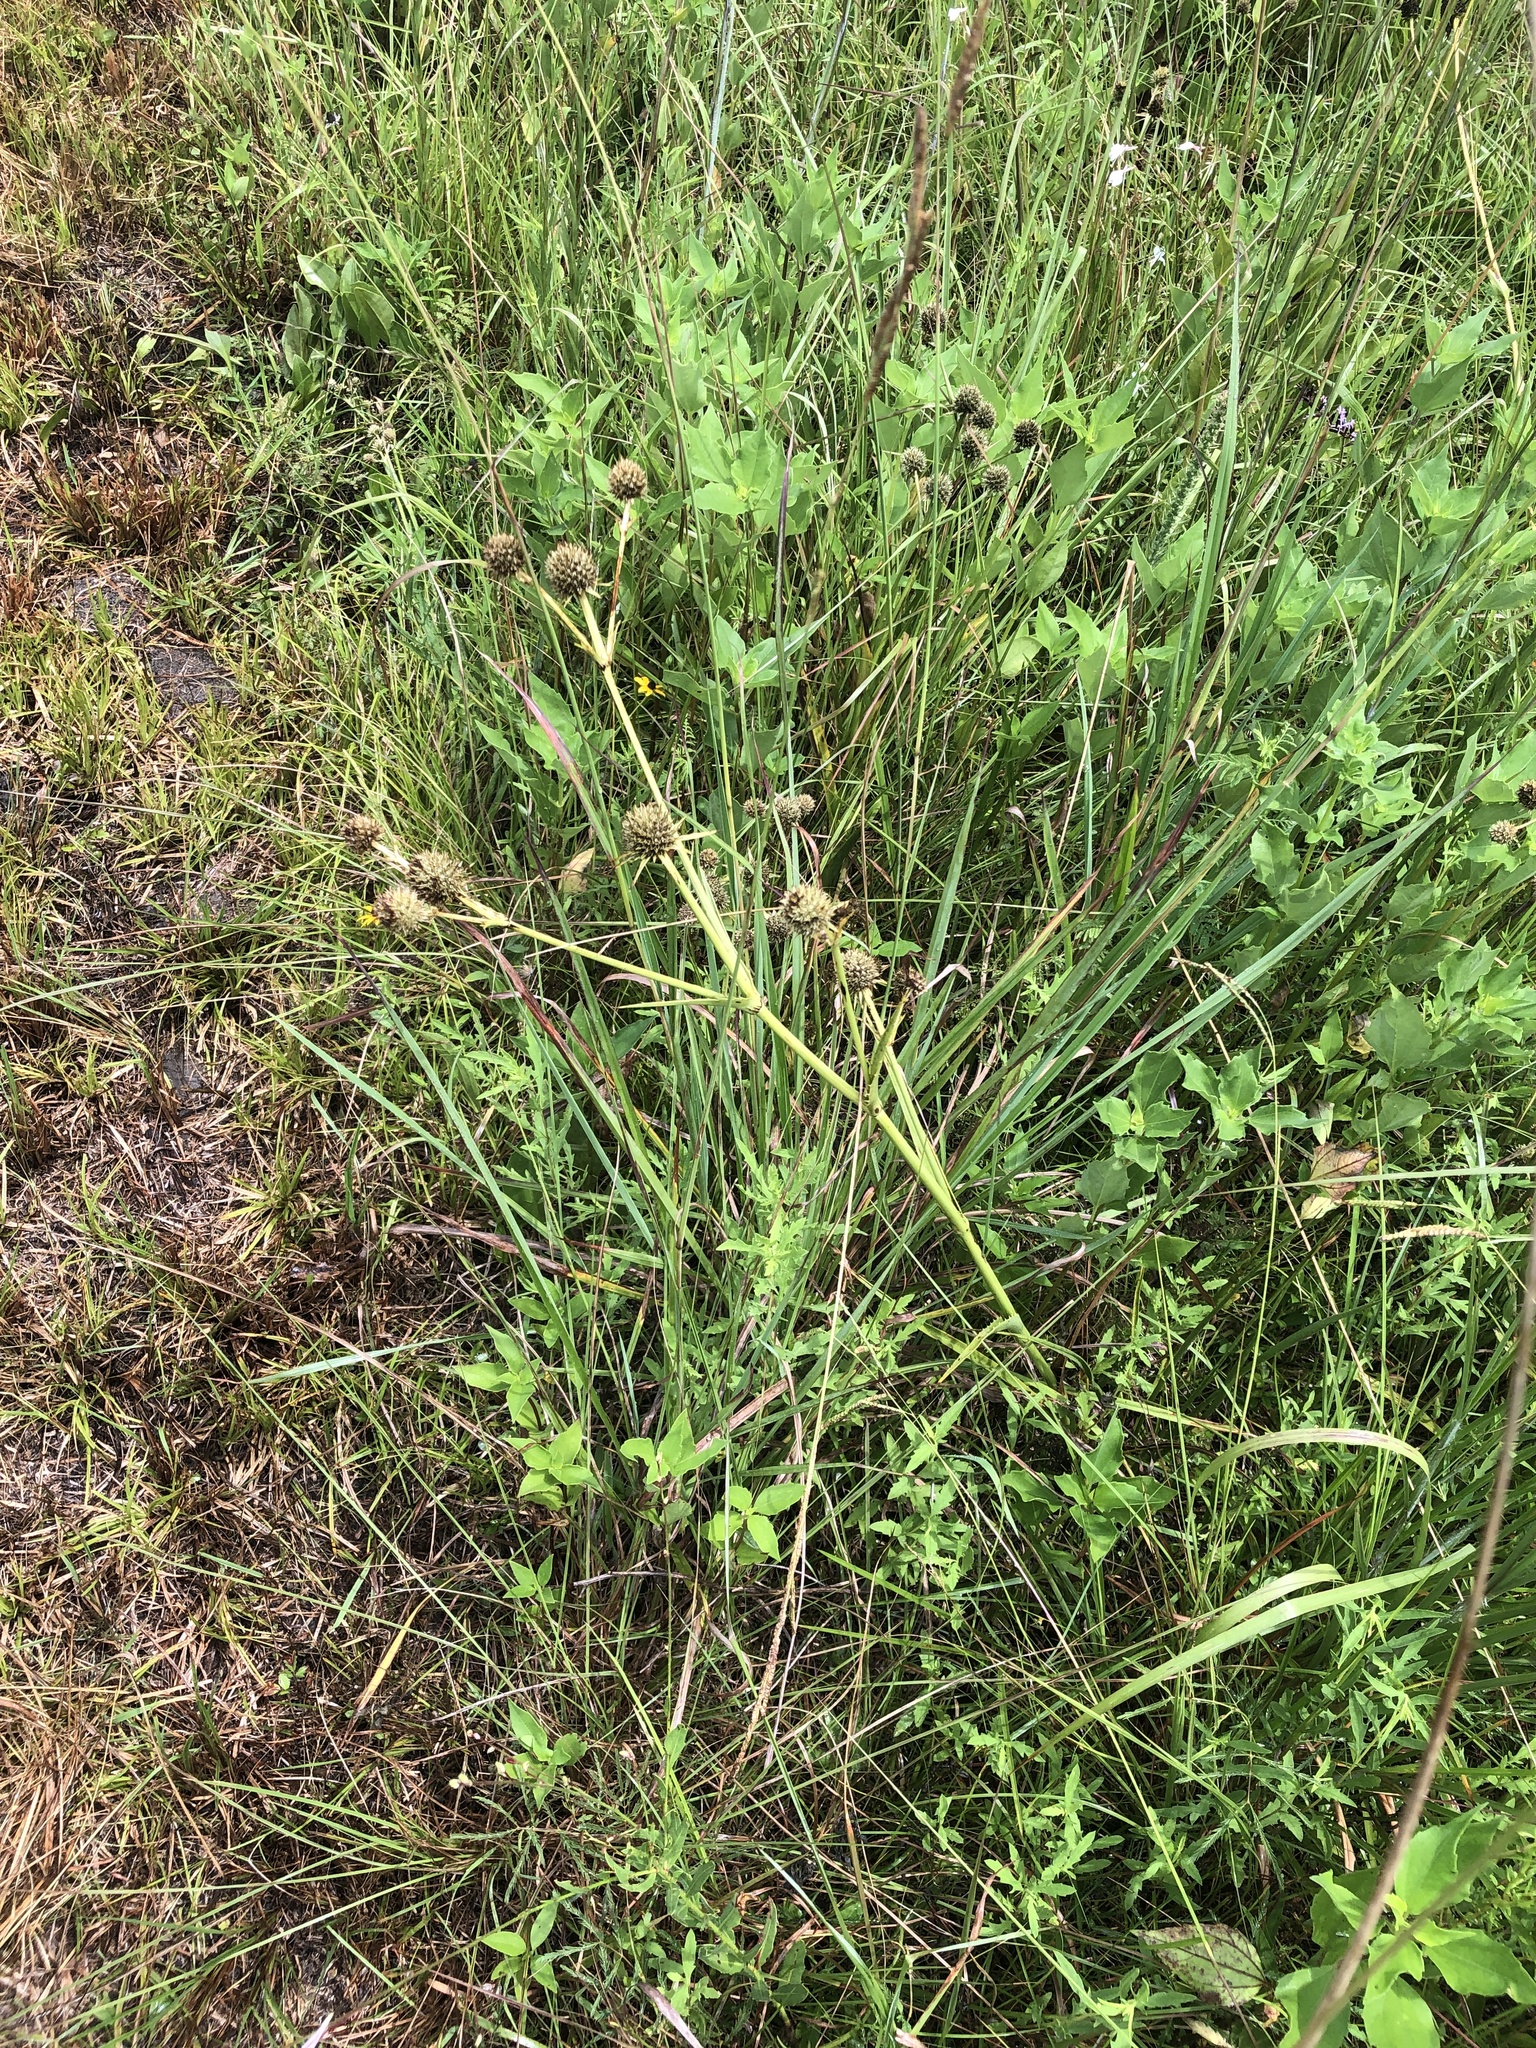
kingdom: Plantae
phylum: Tracheophyta
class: Magnoliopsida
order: Apiales
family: Apiaceae
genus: Eryngium
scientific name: Eryngium yuccifolium
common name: Button eryngo
